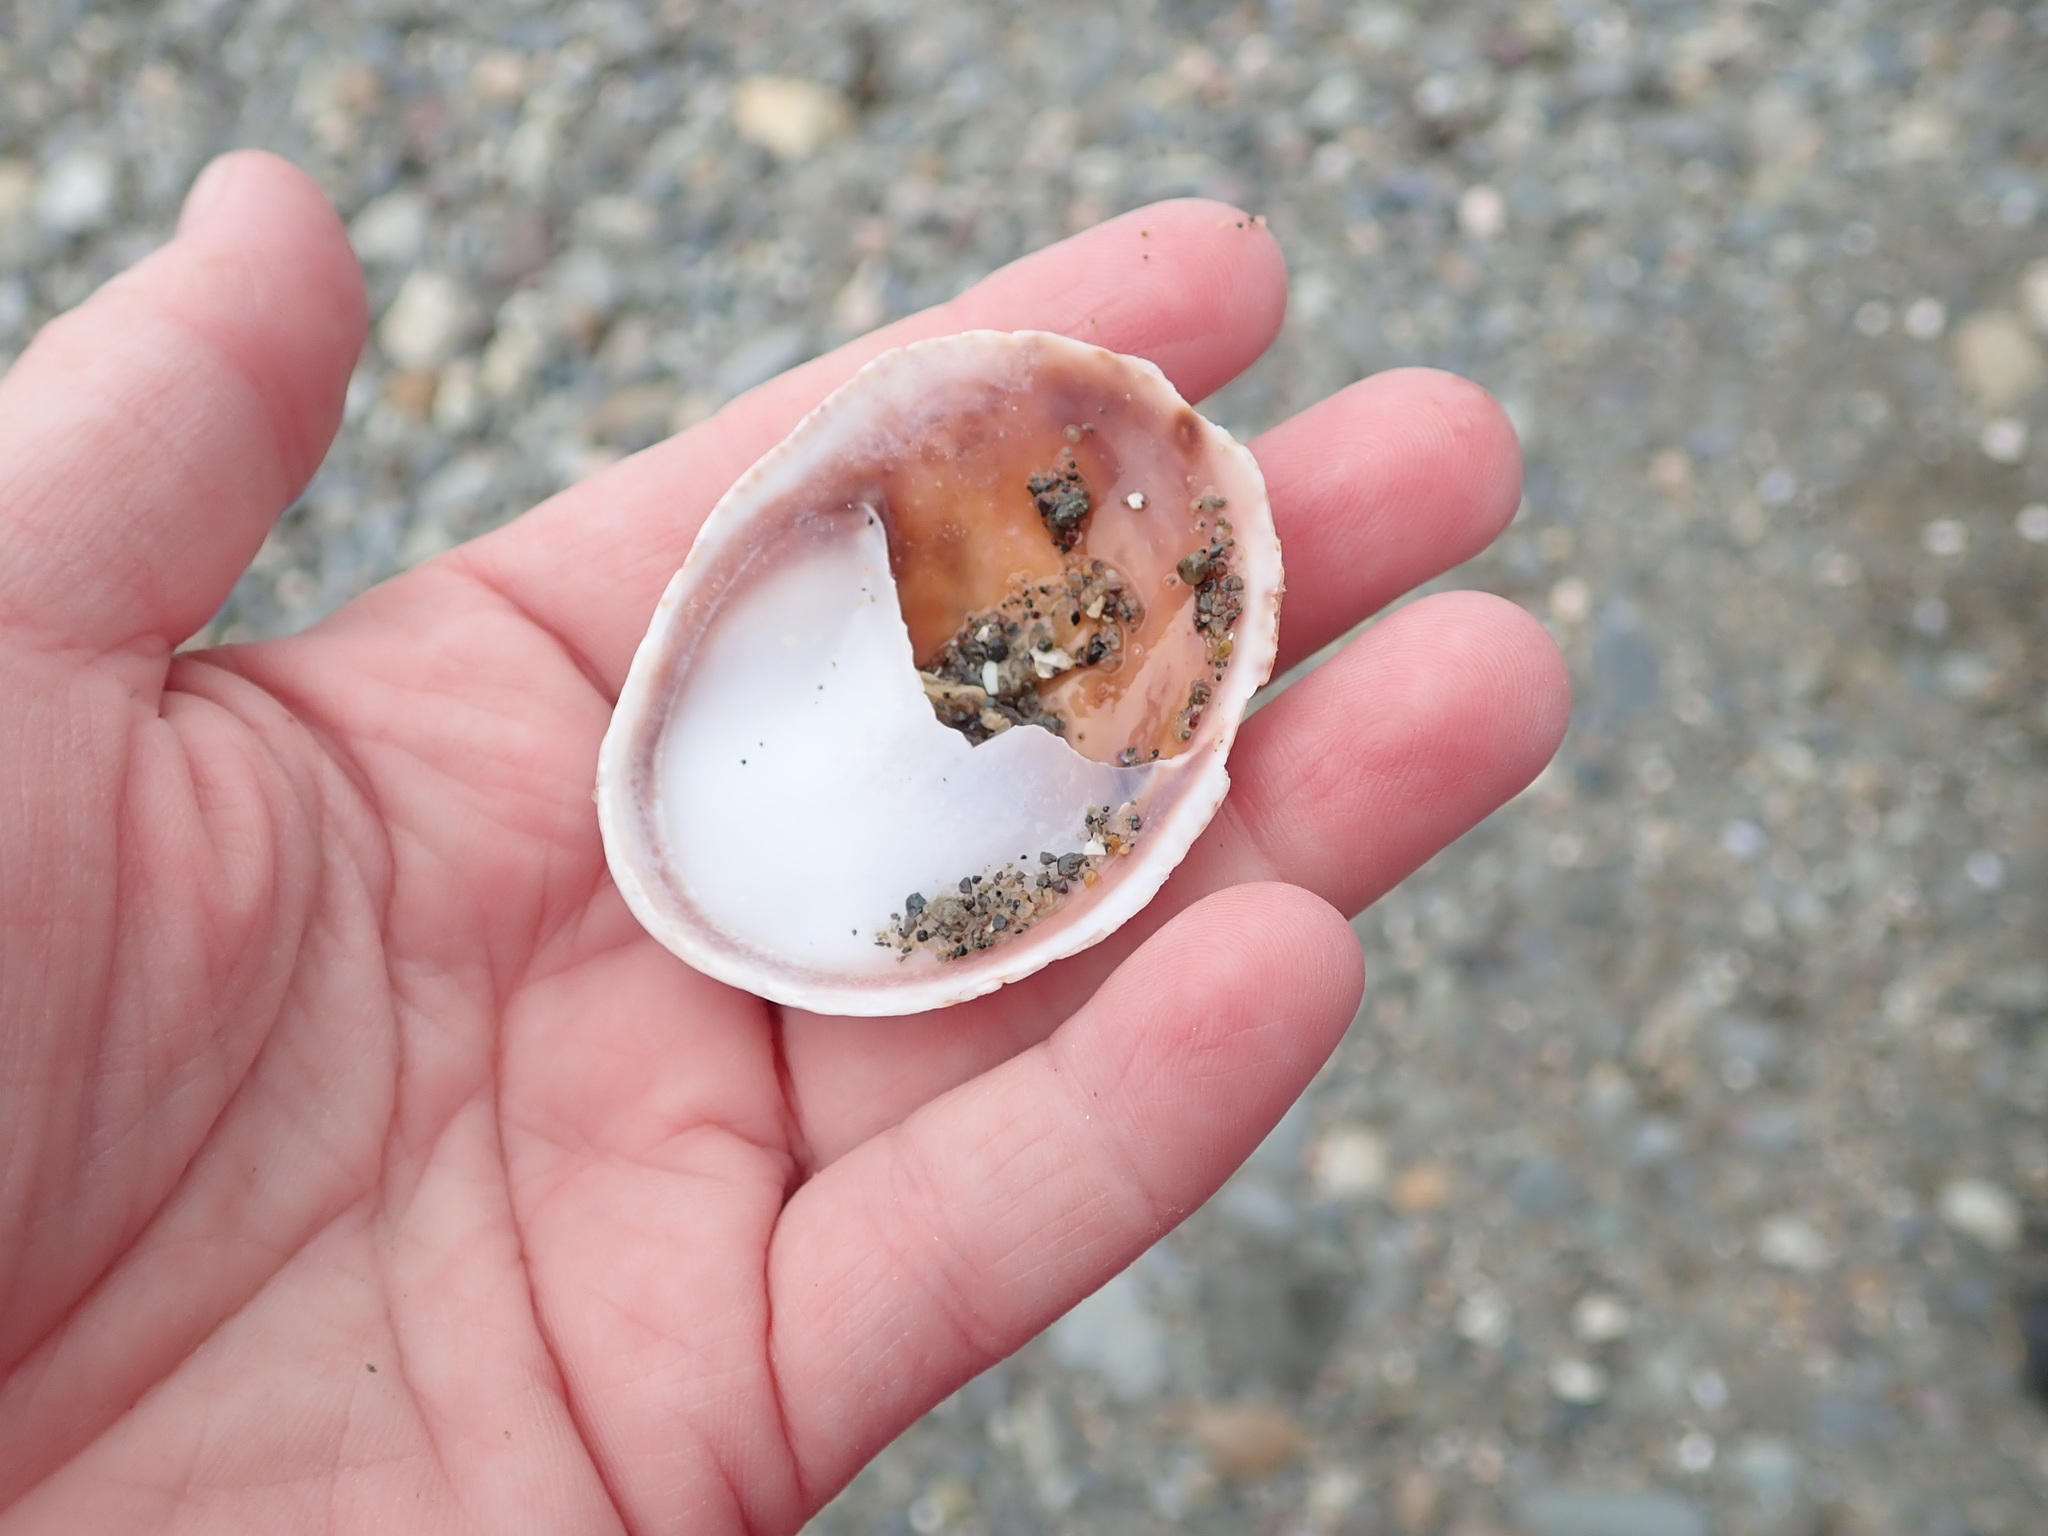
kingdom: Animalia
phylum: Mollusca
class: Gastropoda
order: Littorinimorpha
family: Calyptraeidae
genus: Crepidula
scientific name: Crepidula fornicata
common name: Slipper limpet
